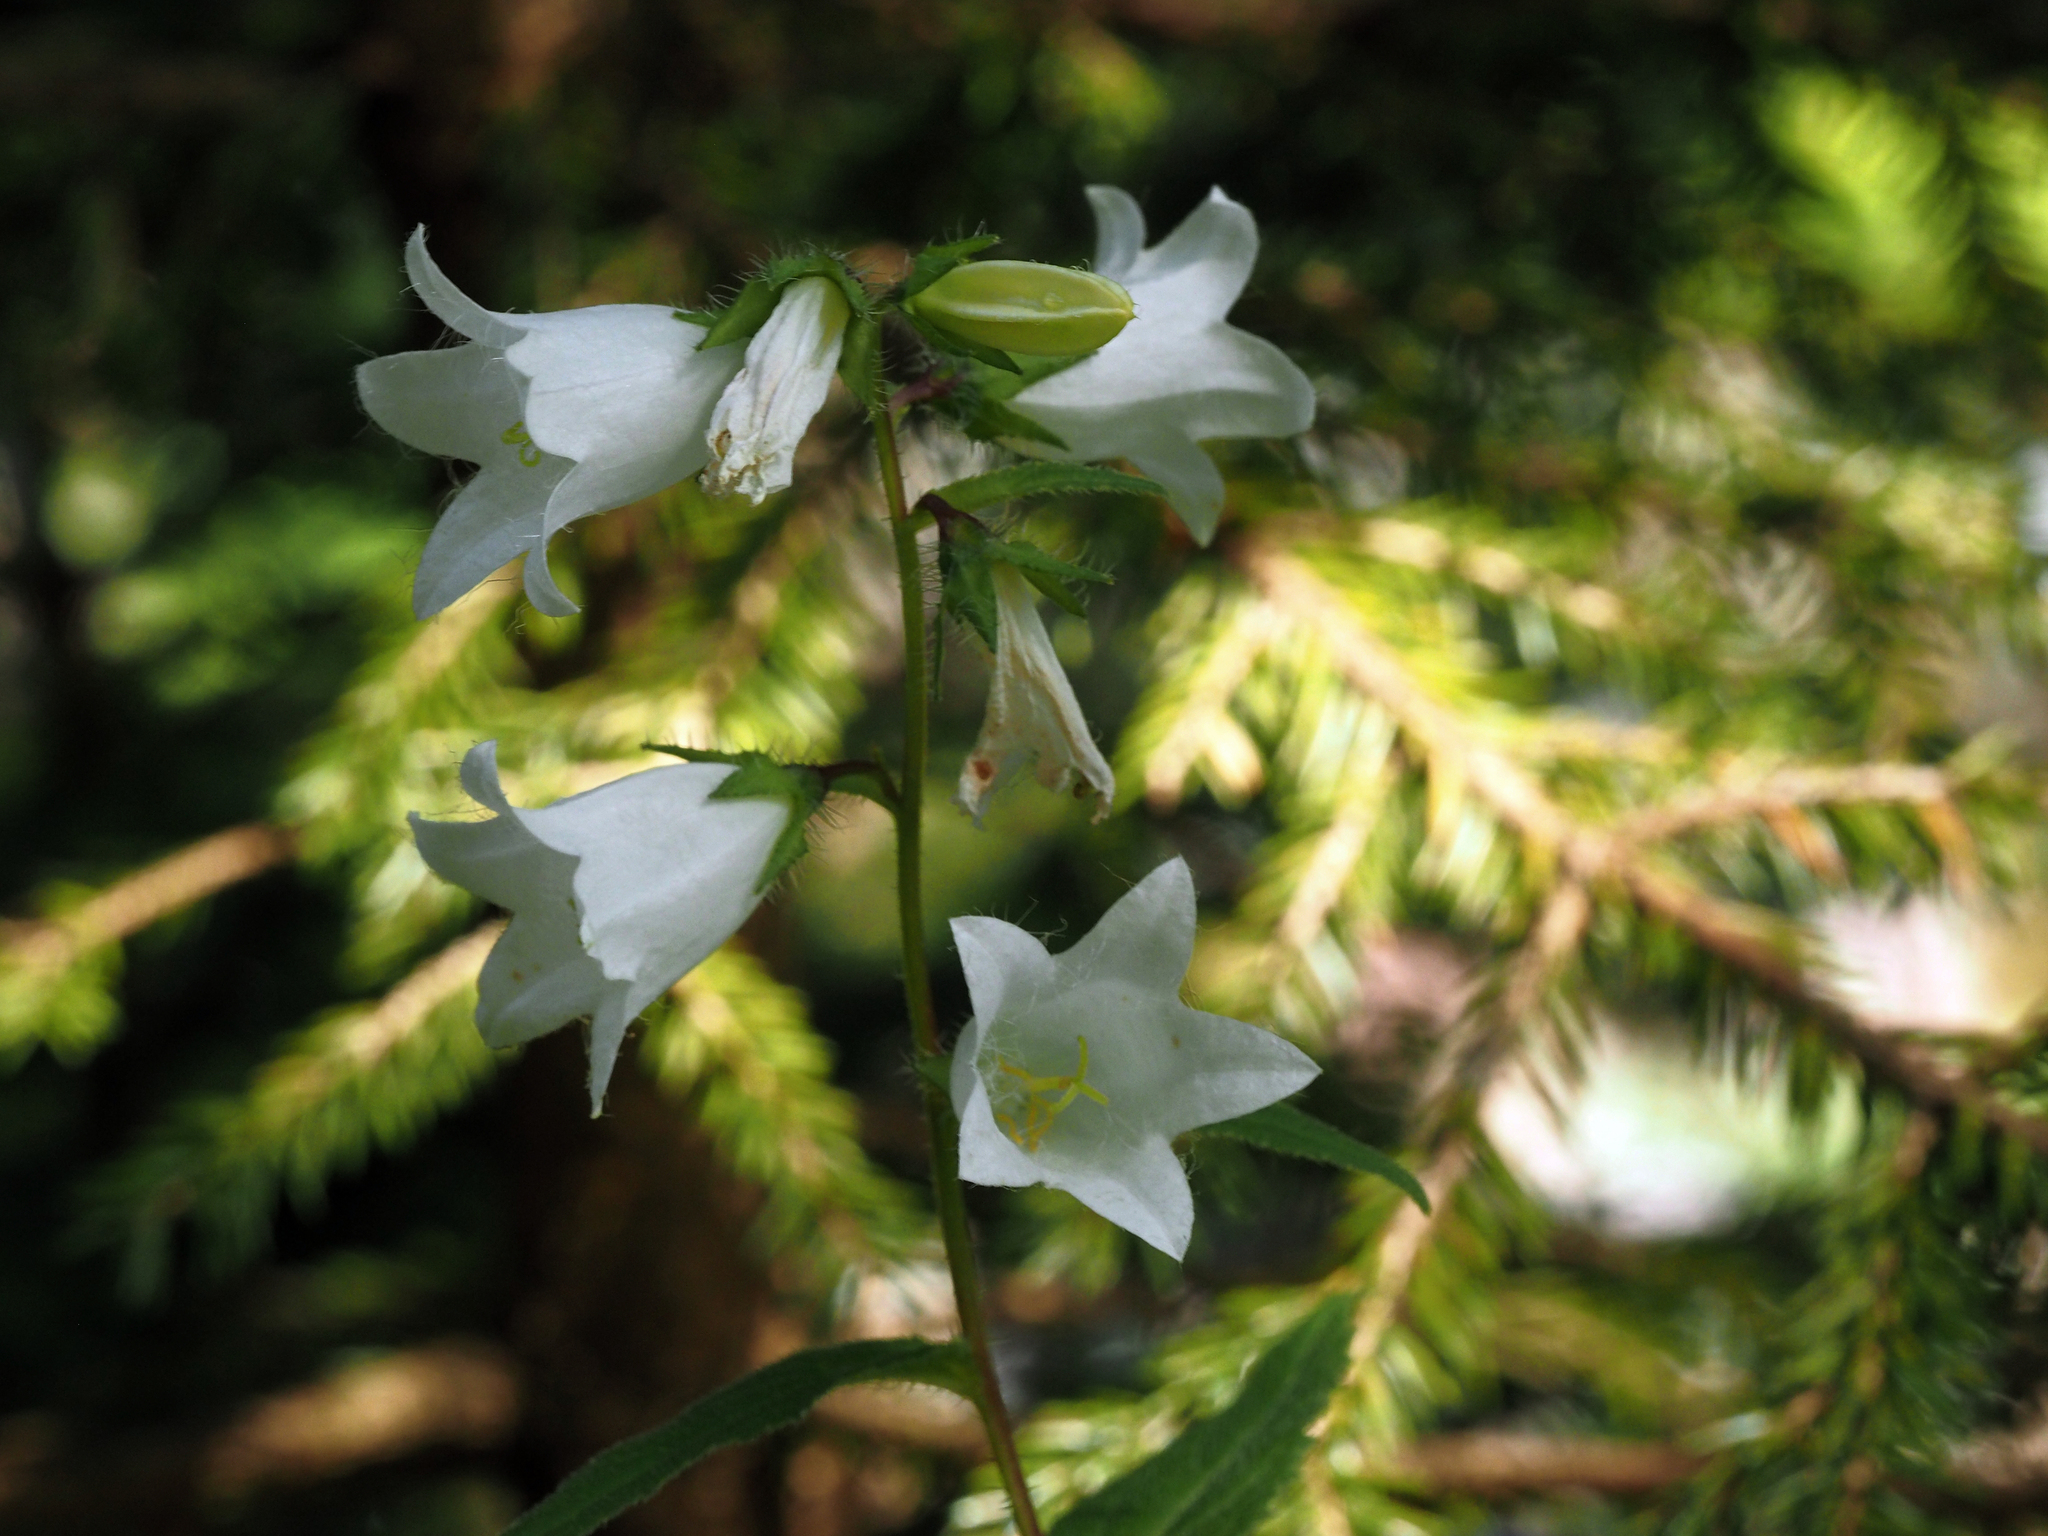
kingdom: Plantae
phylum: Tracheophyta
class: Magnoliopsida
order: Asterales
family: Campanulaceae
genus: Campanula
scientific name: Campanula trachelium
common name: Nettle-leaved bellflower
